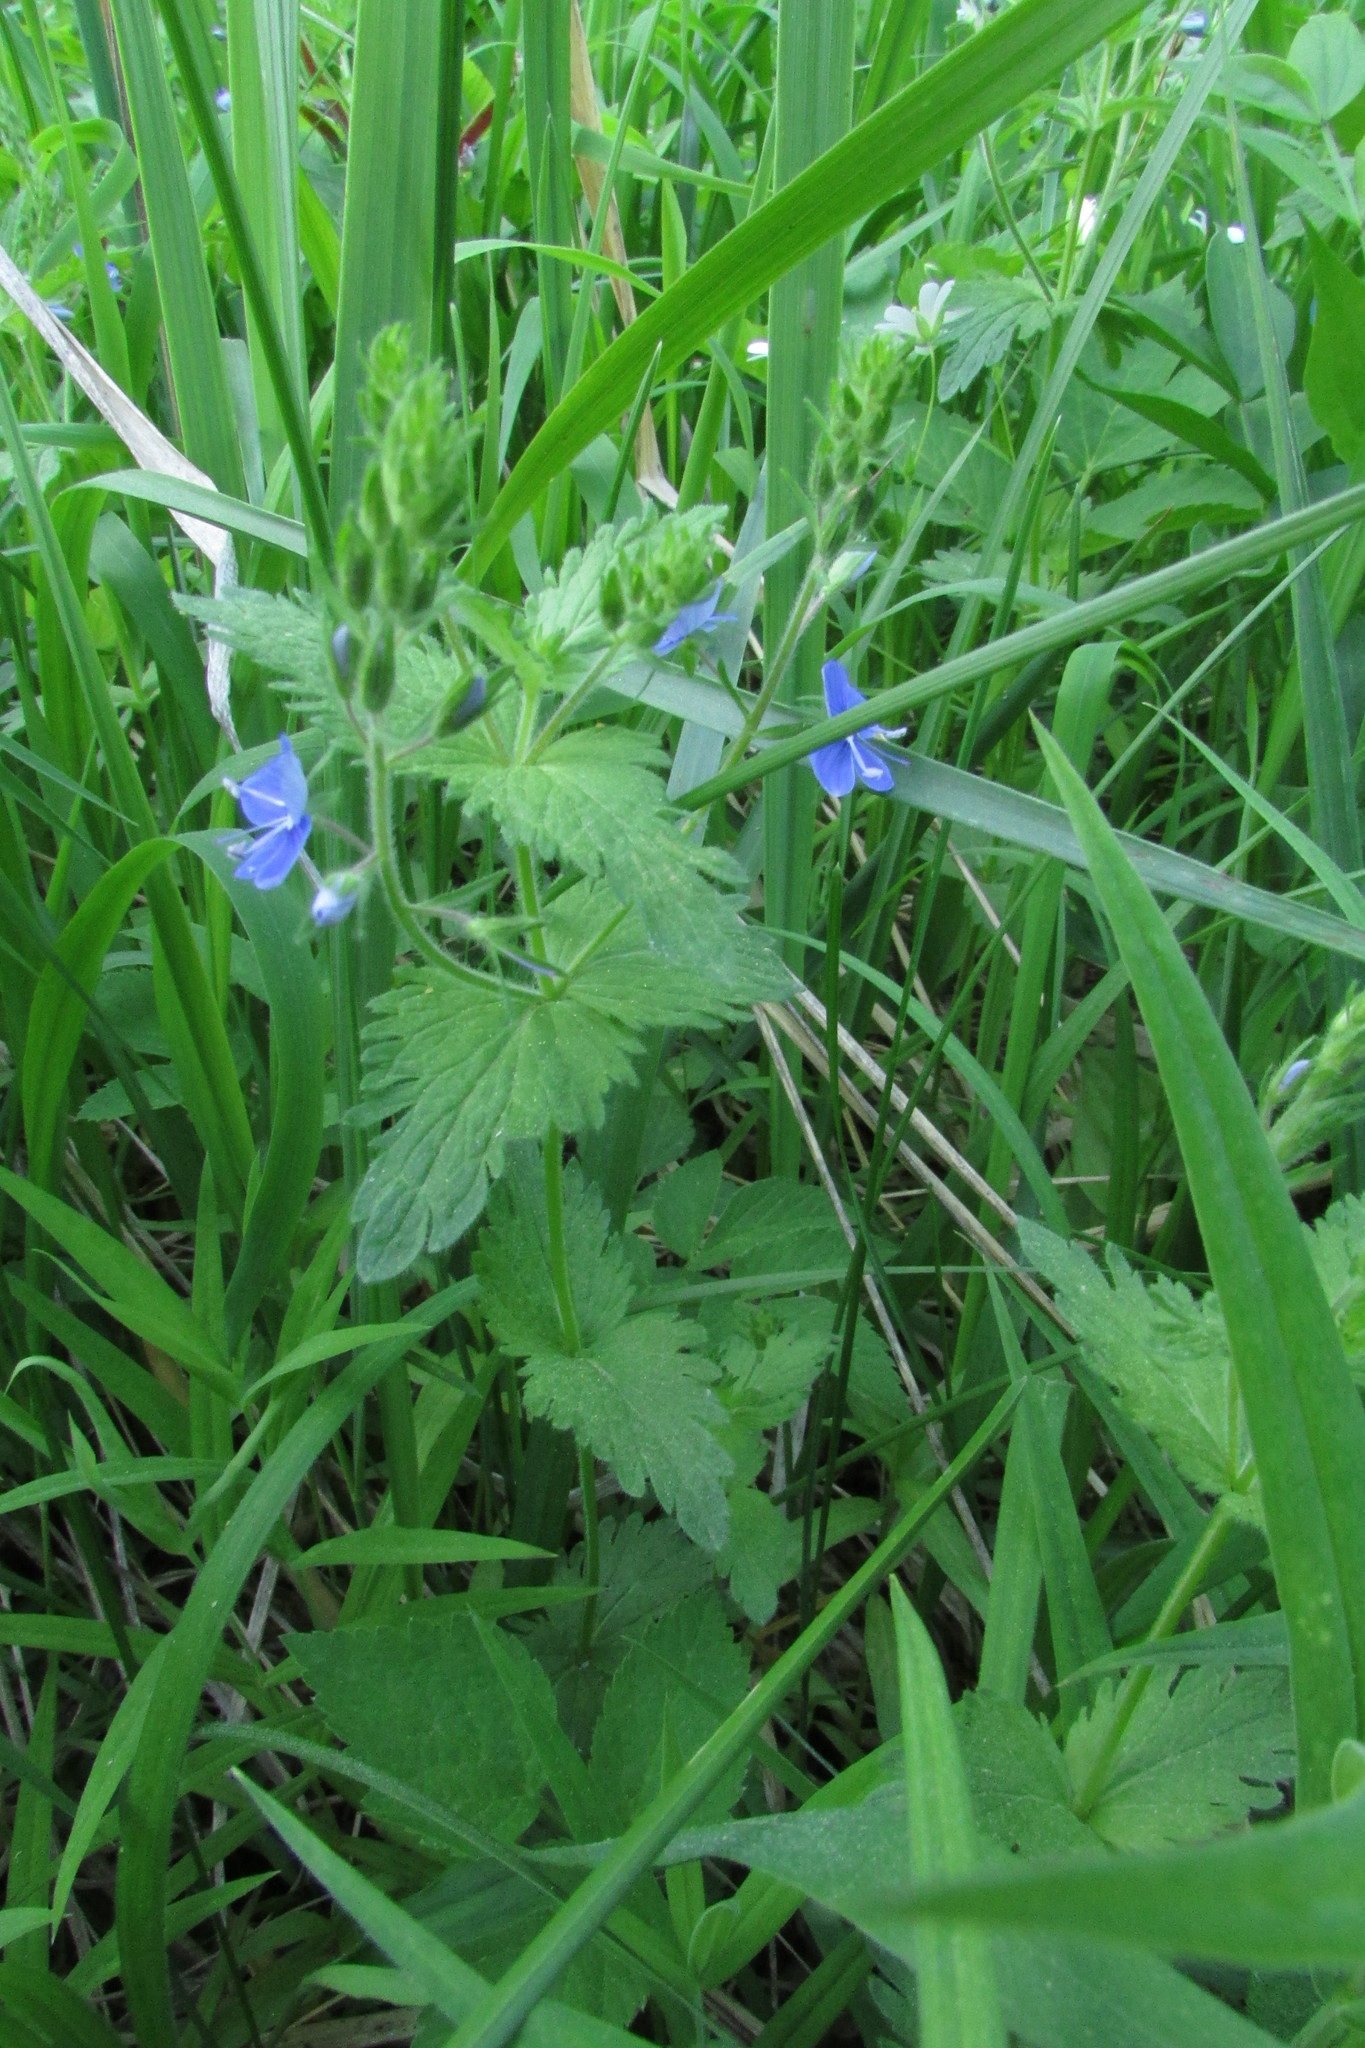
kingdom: Plantae
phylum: Tracheophyta
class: Magnoliopsida
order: Lamiales
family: Plantaginaceae
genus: Veronica
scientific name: Veronica chamaedrys
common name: Germander speedwell
